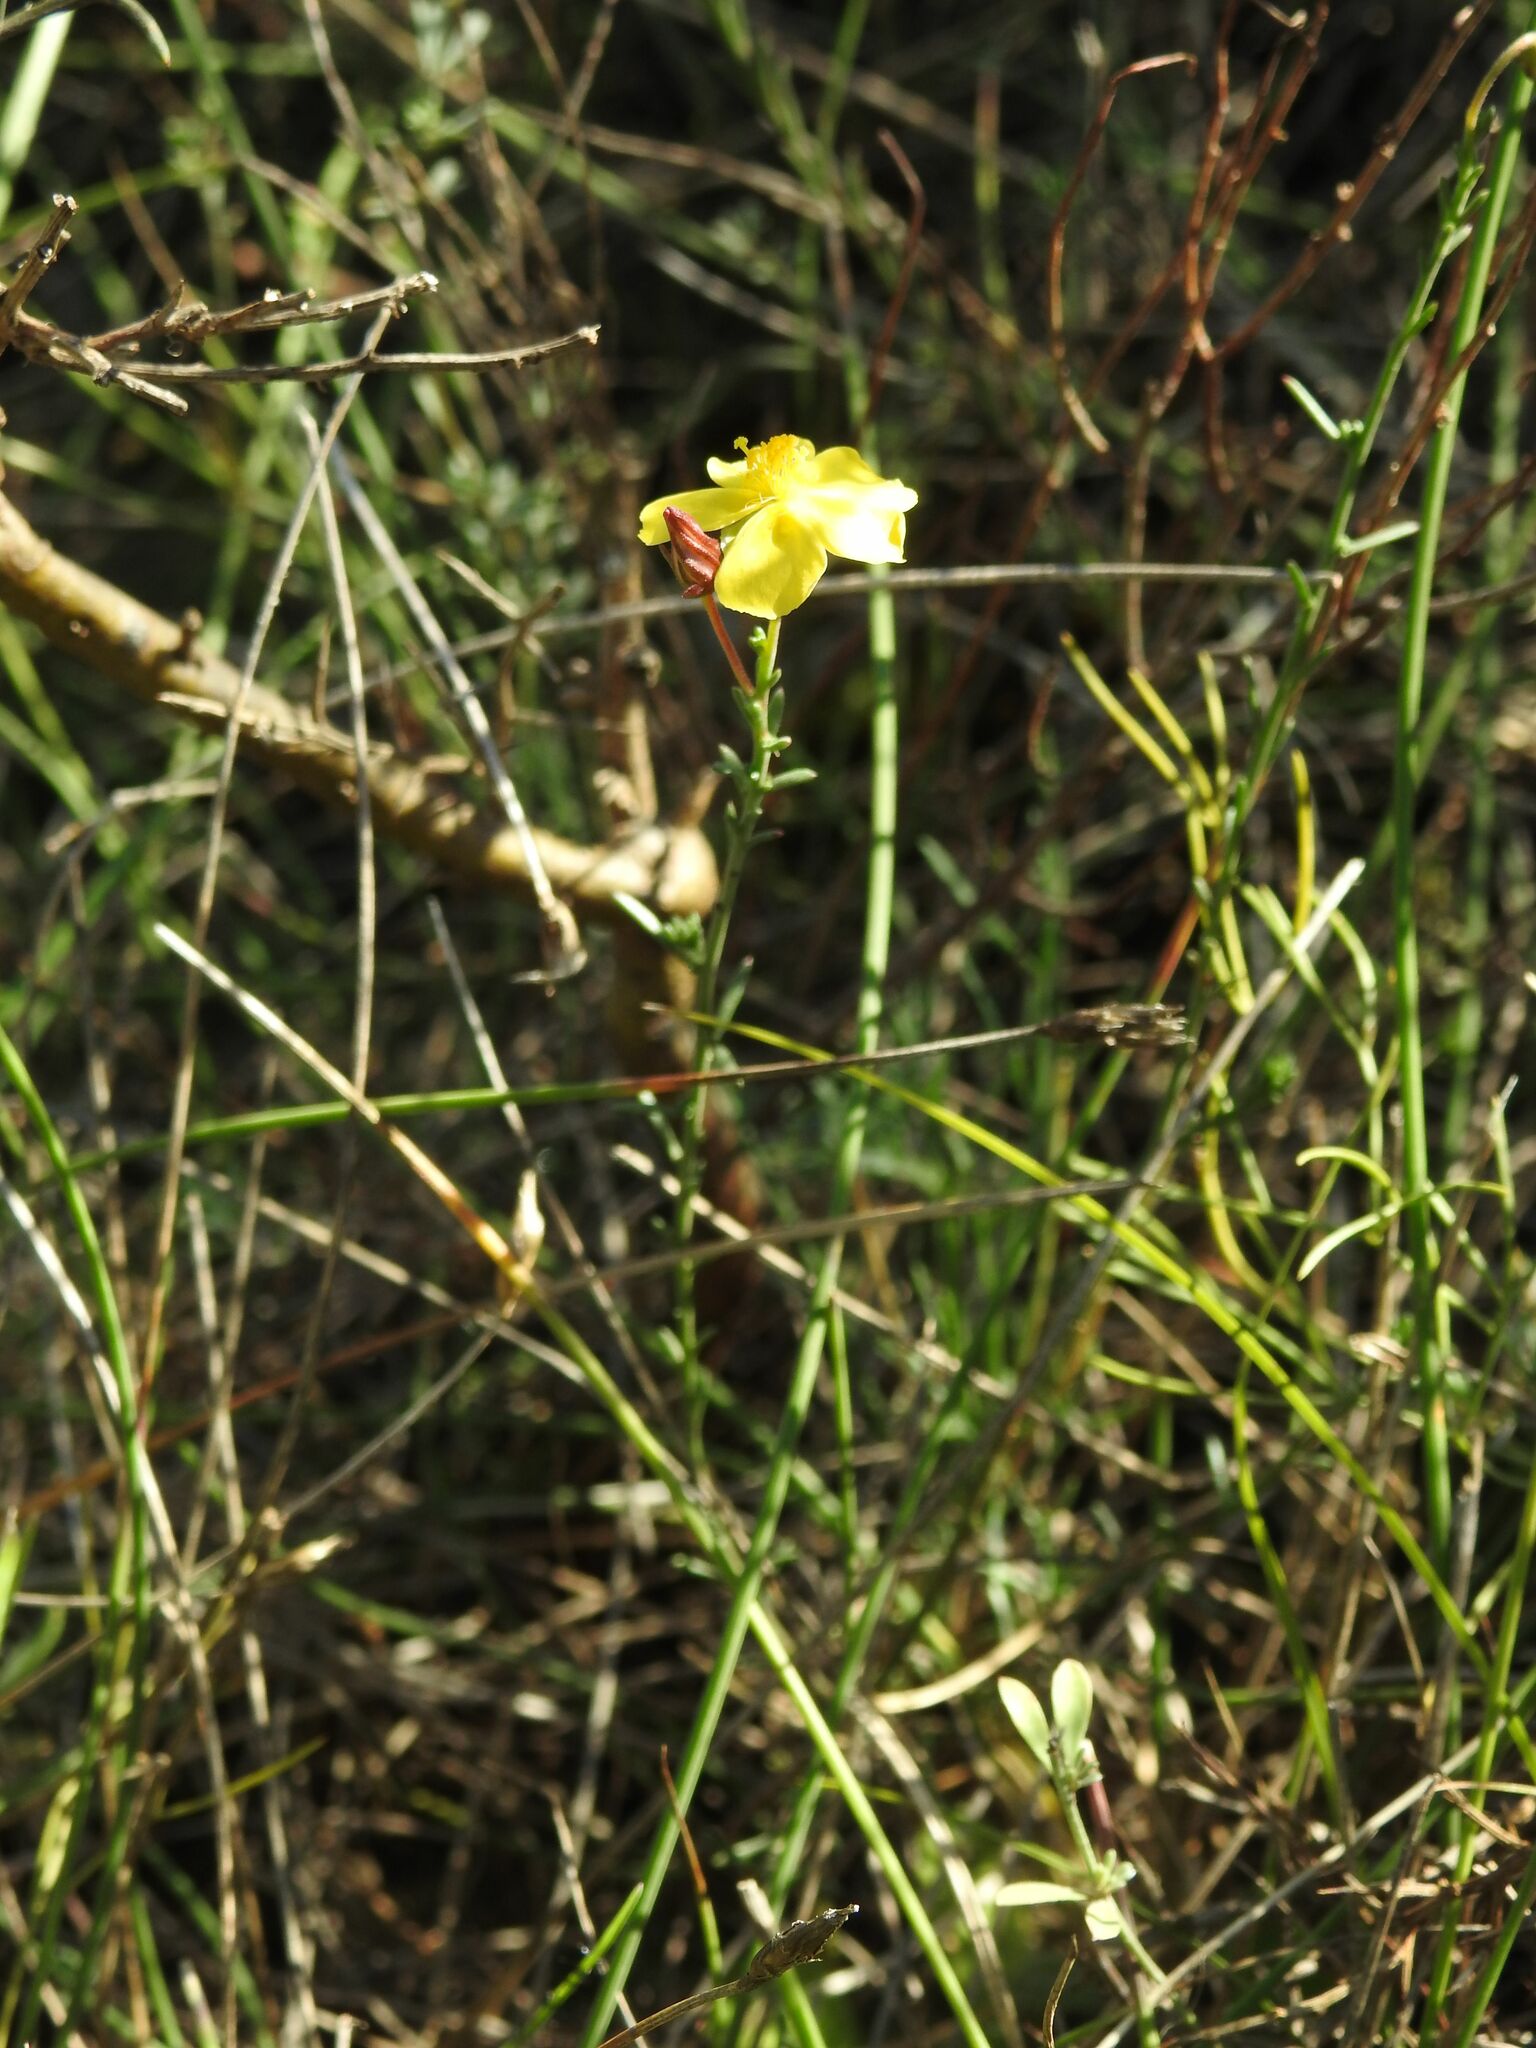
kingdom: Plantae
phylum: Tracheophyta
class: Magnoliopsida
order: Malvales
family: Cistaceae
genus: Fumana
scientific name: Fumana ericifolia
